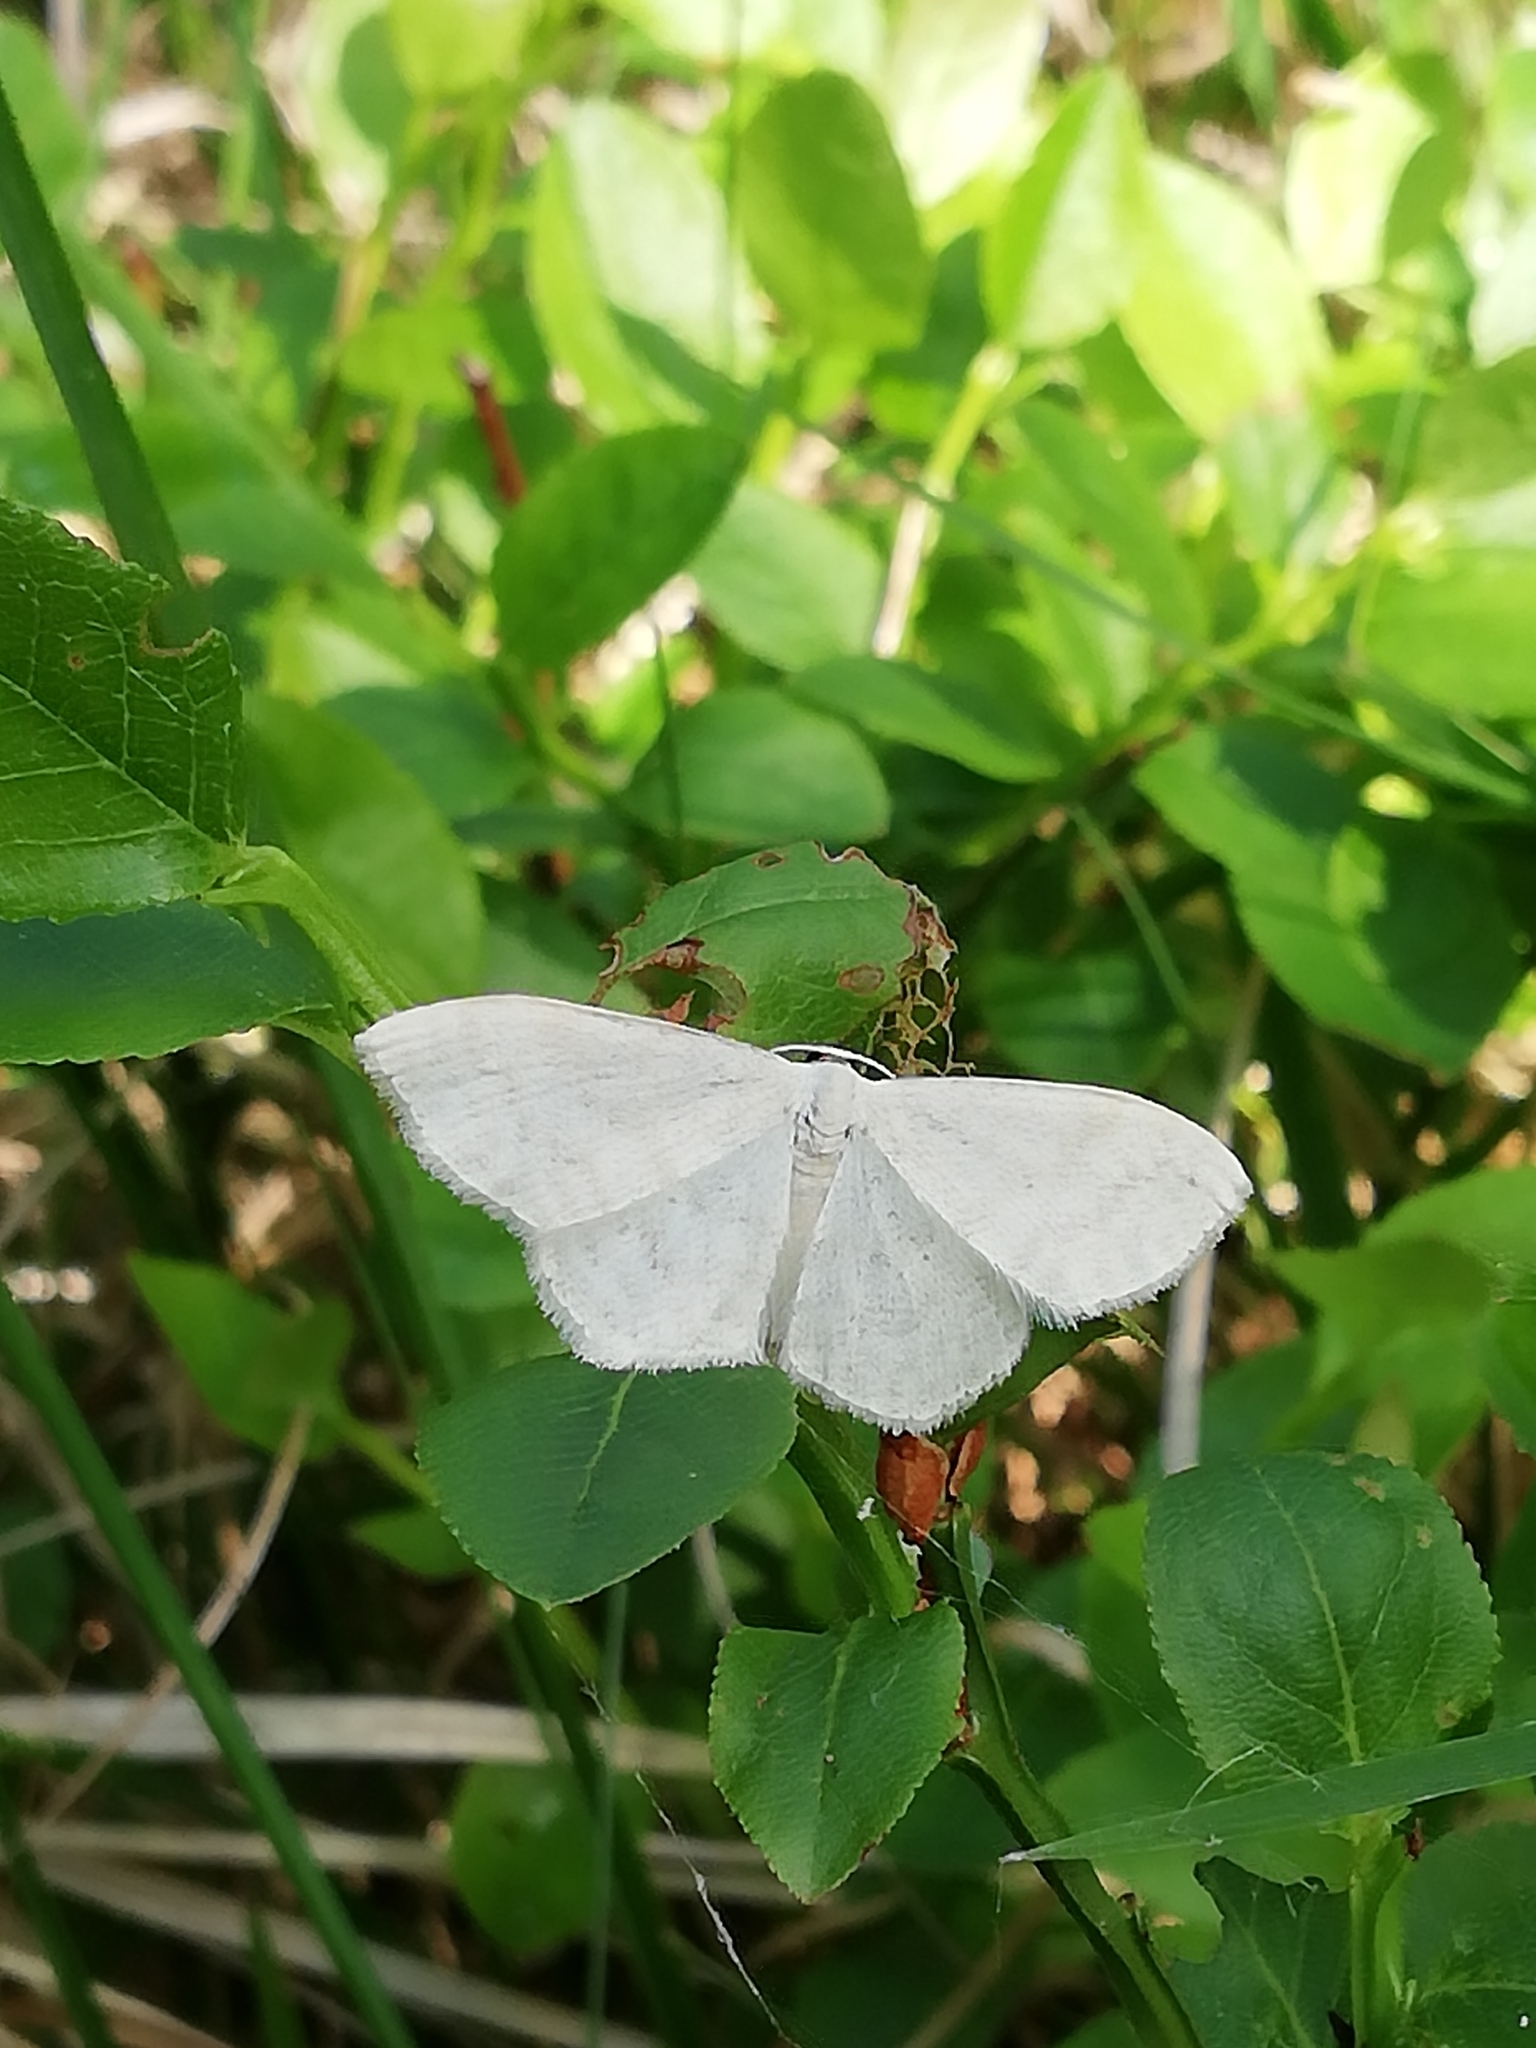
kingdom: Animalia
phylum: Arthropoda
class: Insecta
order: Lepidoptera
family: Geometridae
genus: Scopula
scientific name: Scopula floslactata
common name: Cream wave
